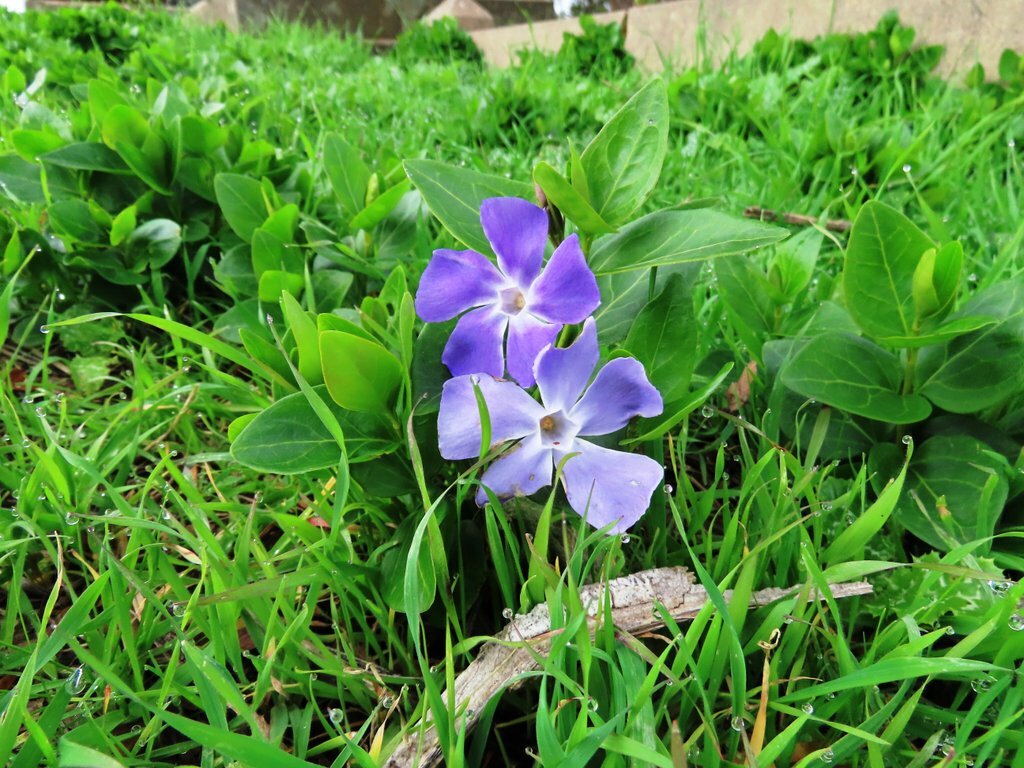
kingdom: Plantae
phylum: Tracheophyta
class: Magnoliopsida
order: Gentianales
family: Apocynaceae
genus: Vinca
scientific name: Vinca major
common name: Greater periwinkle
